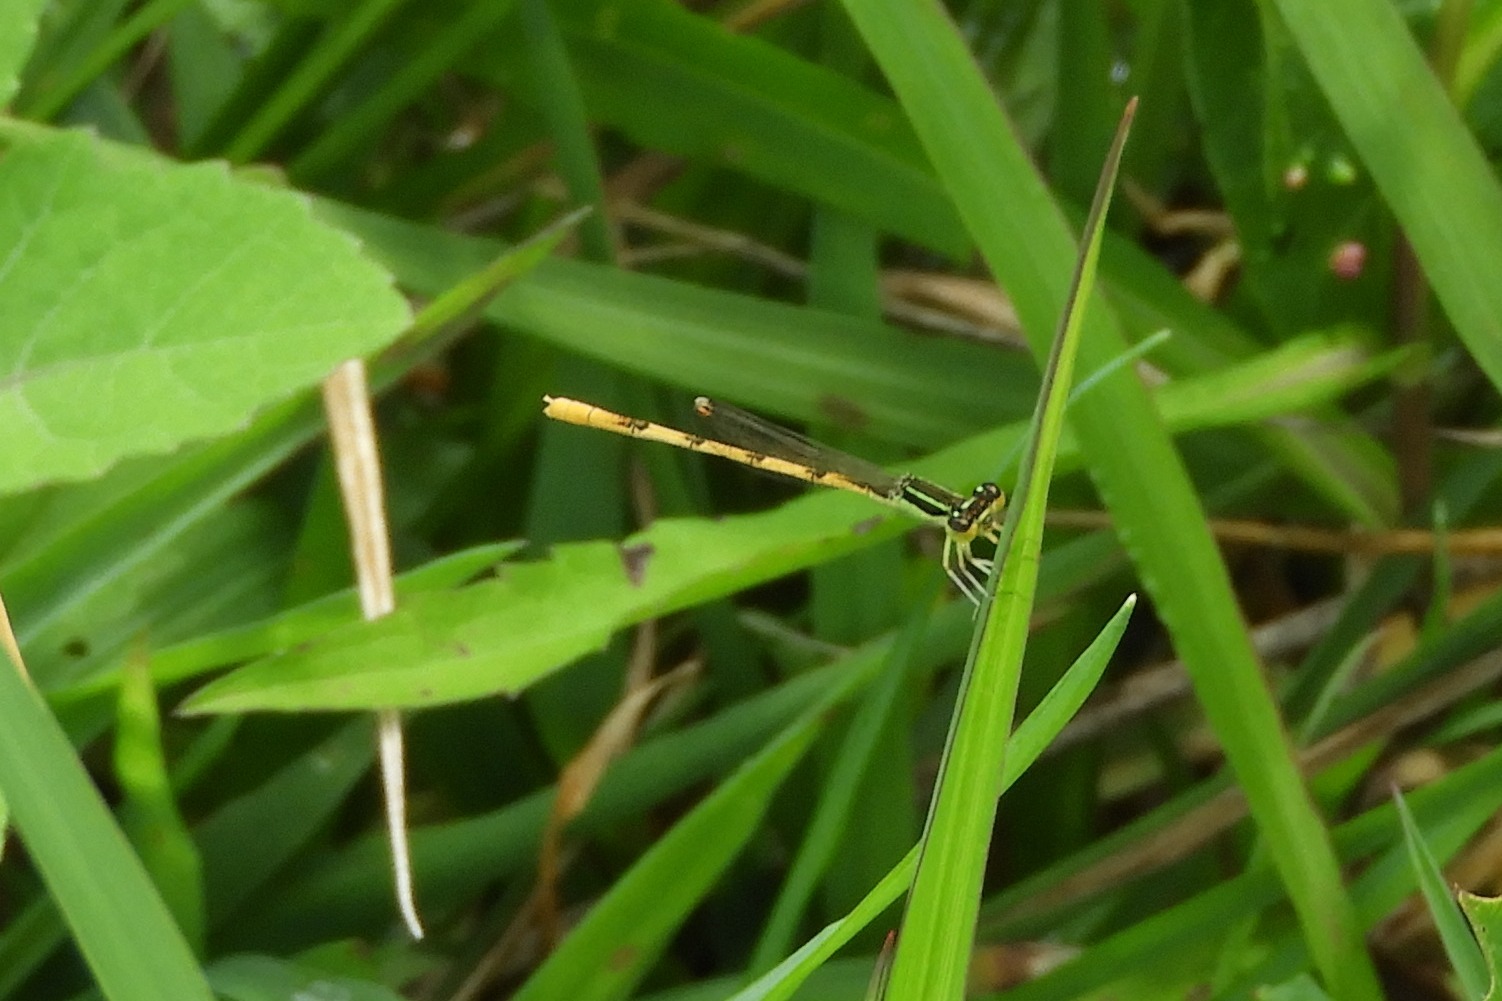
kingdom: Animalia
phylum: Arthropoda
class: Insecta
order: Odonata
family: Coenagrionidae
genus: Ischnura
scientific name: Ischnura hastata
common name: Citrine forktail
